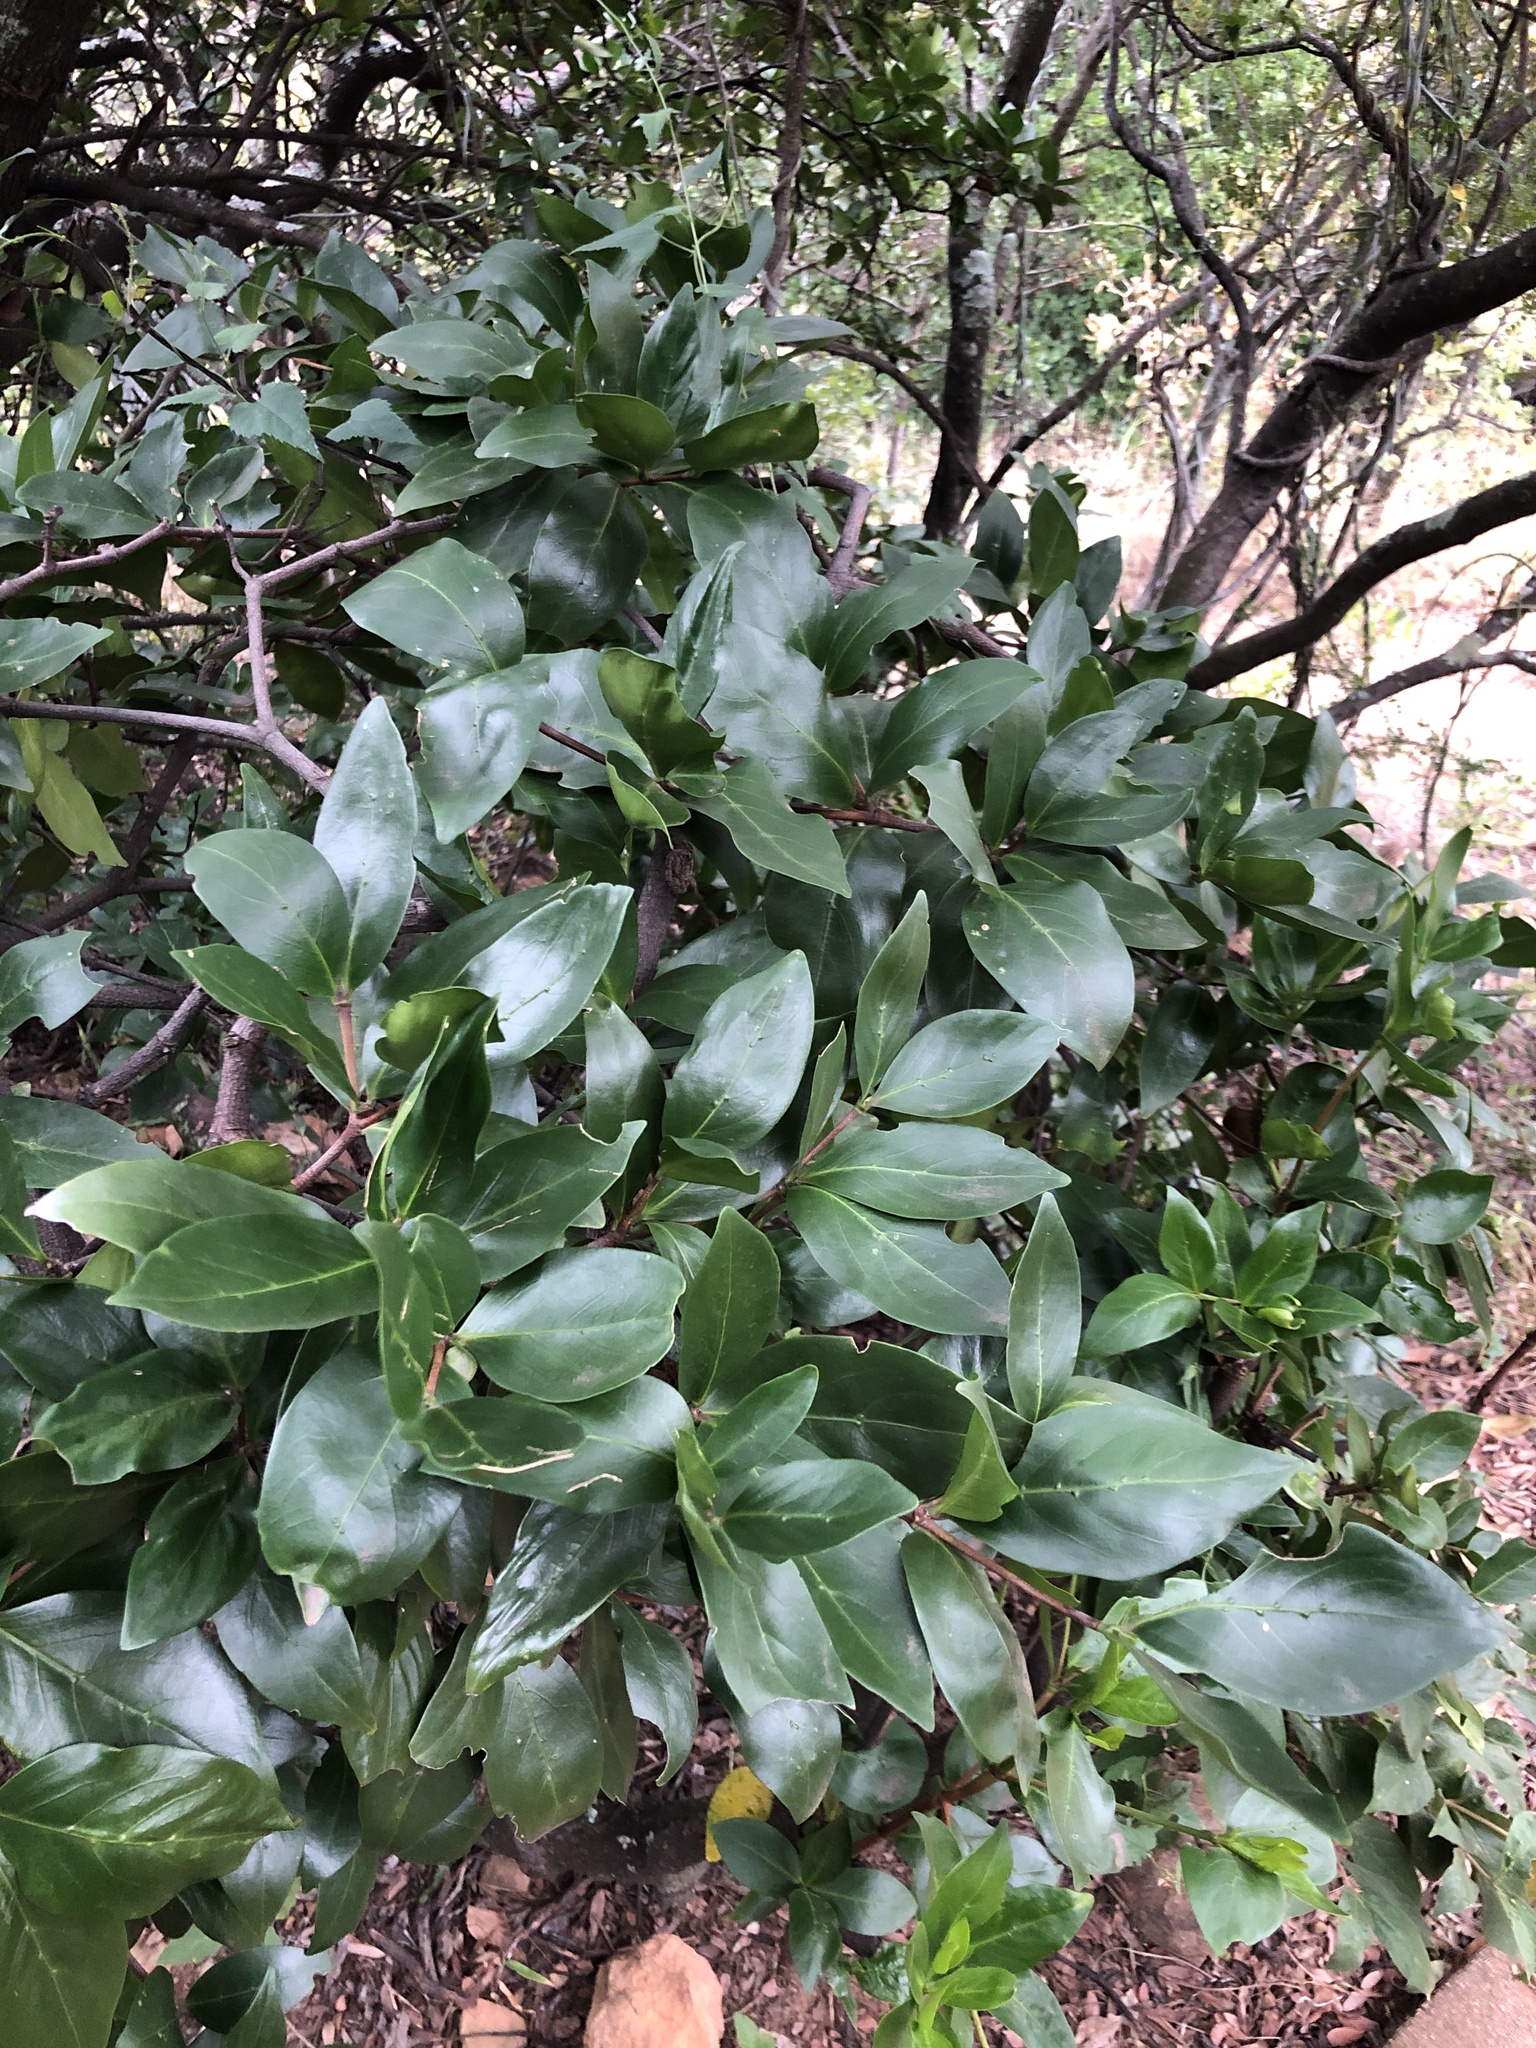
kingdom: Plantae
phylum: Tracheophyta
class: Magnoliopsida
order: Gentianales
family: Rubiaceae
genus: Rothmannia
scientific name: Rothmannia capensis
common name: Cape gardenia
